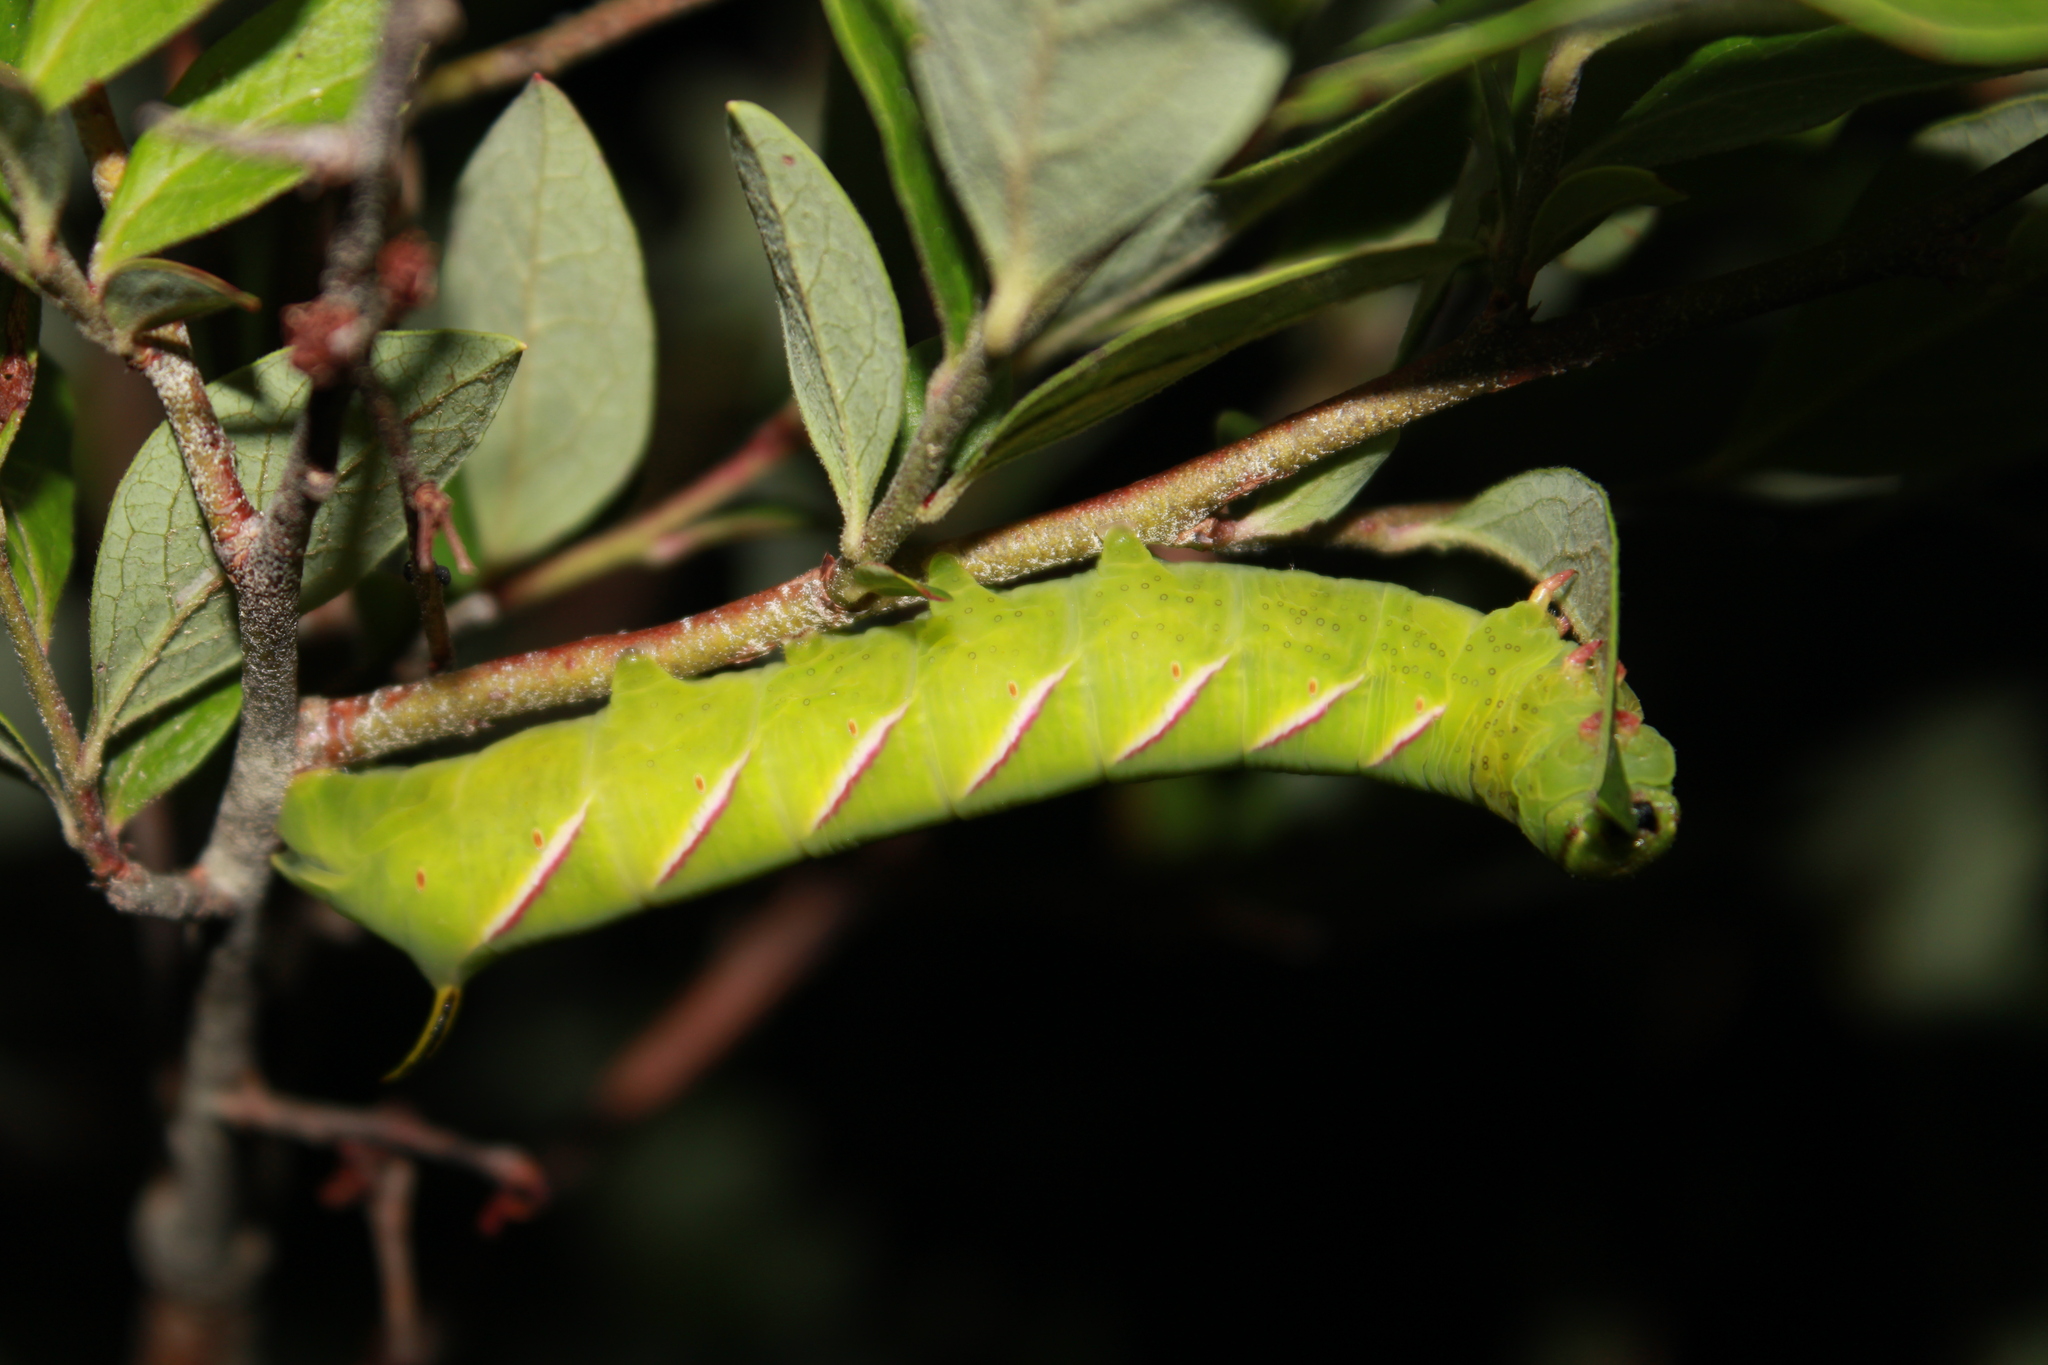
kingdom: Animalia
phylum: Arthropoda
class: Insecta
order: Lepidoptera
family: Sphingidae
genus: Sphinx
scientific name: Sphinx
